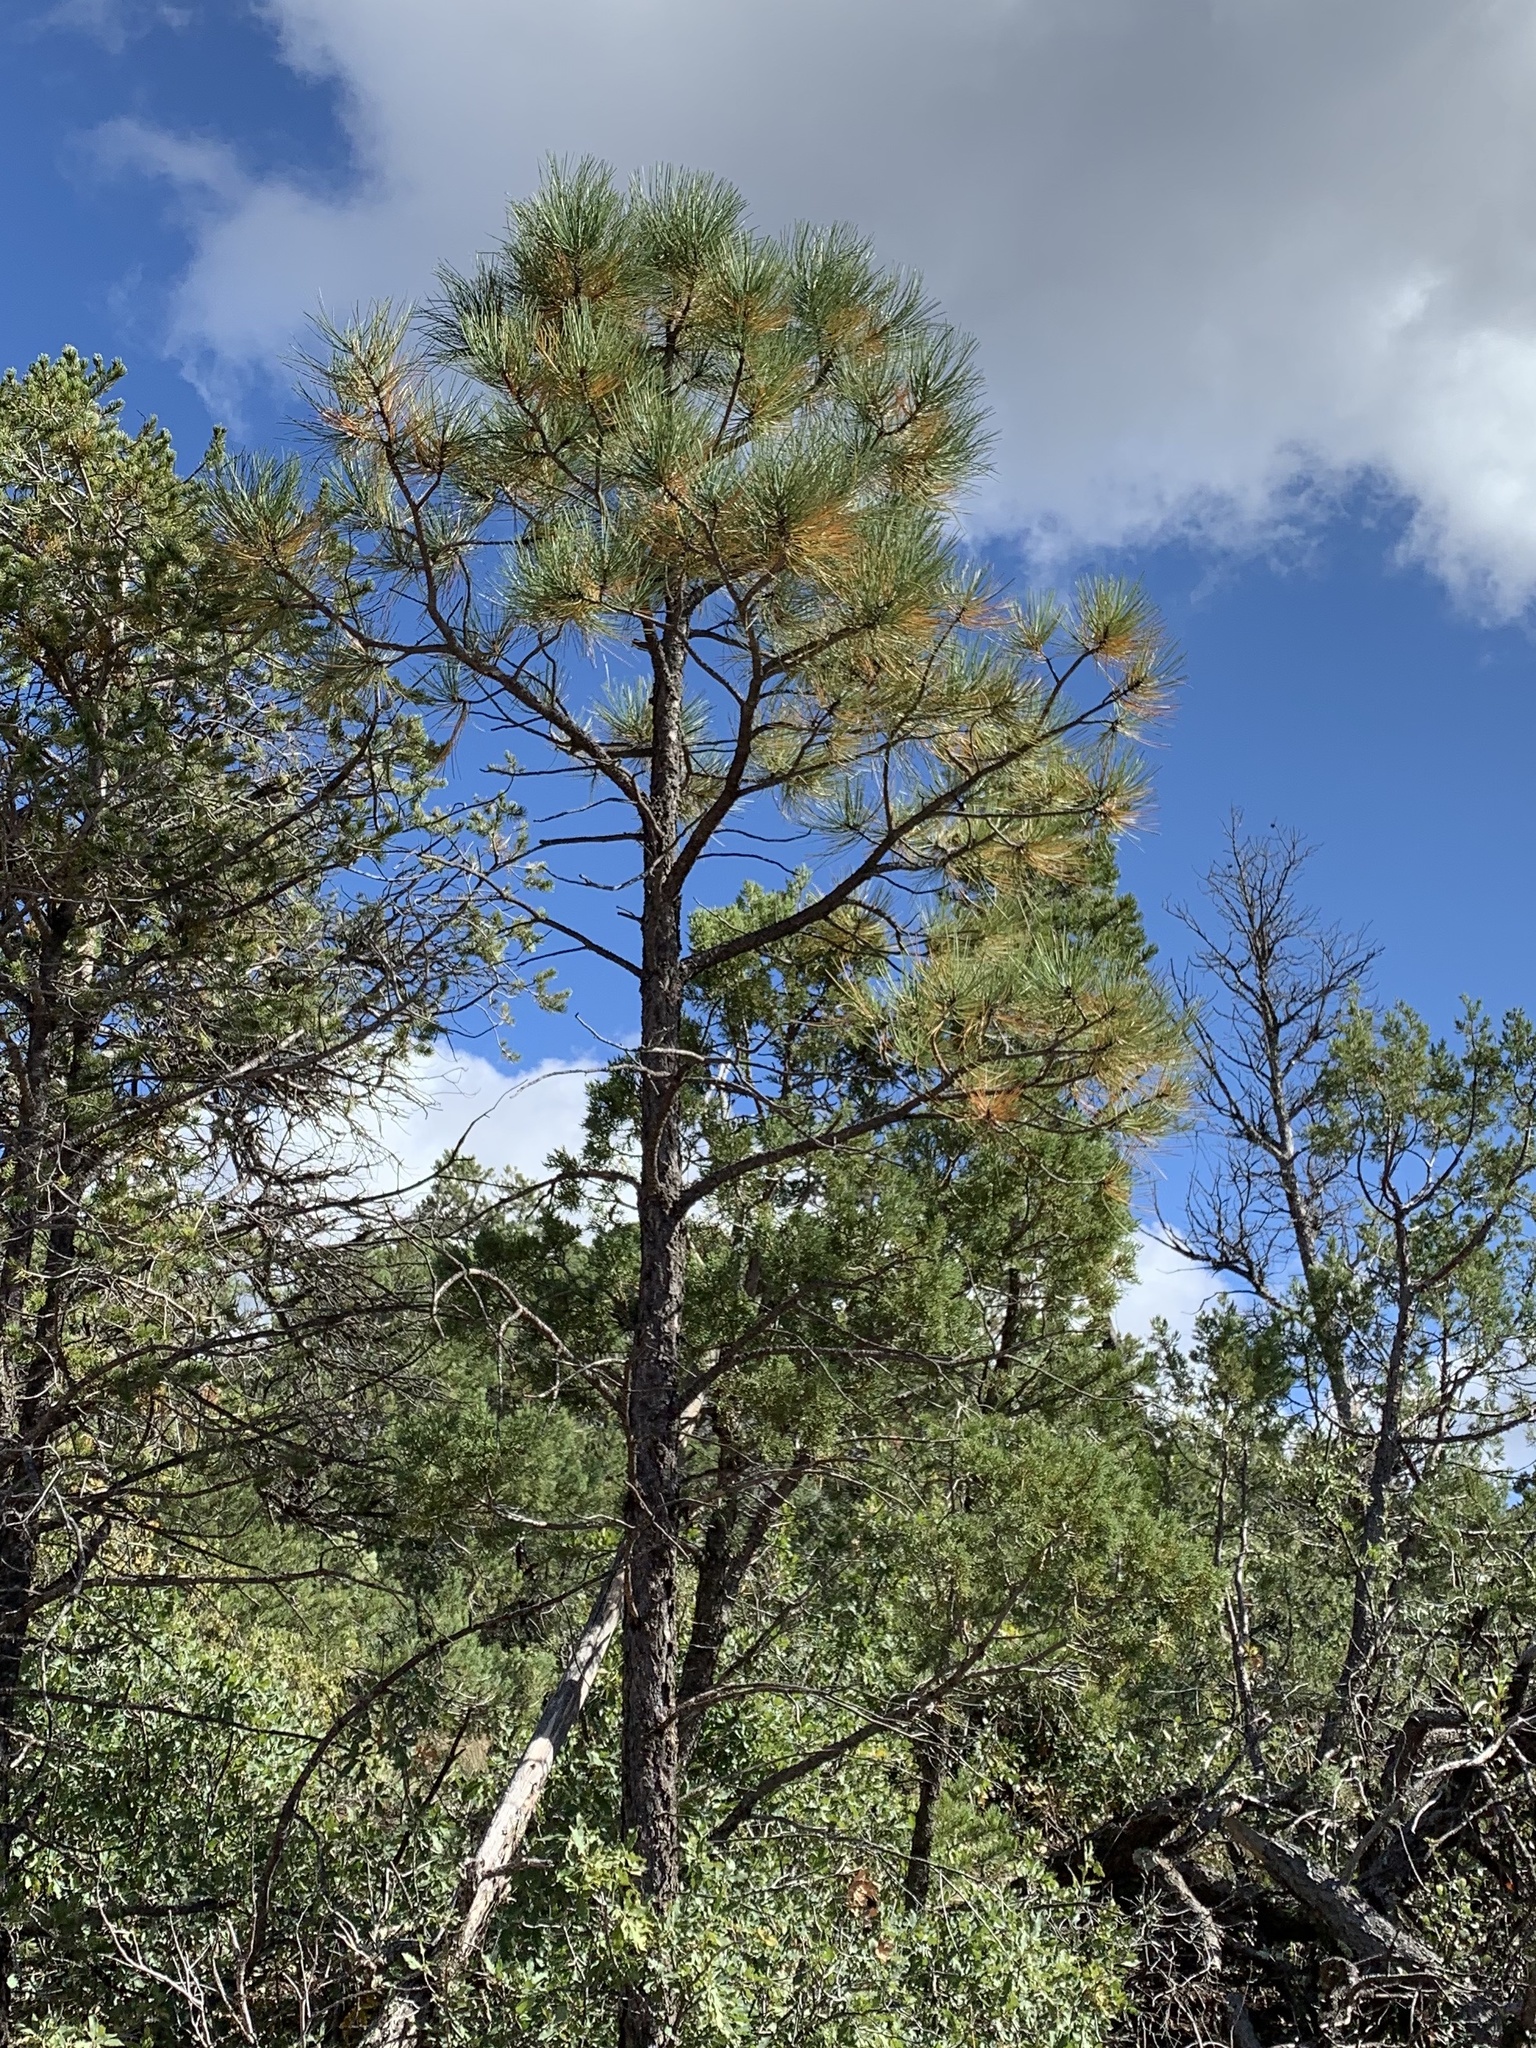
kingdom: Plantae
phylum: Tracheophyta
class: Pinopsida
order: Pinales
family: Pinaceae
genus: Pinus
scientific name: Pinus ponderosa
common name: Western yellow-pine
